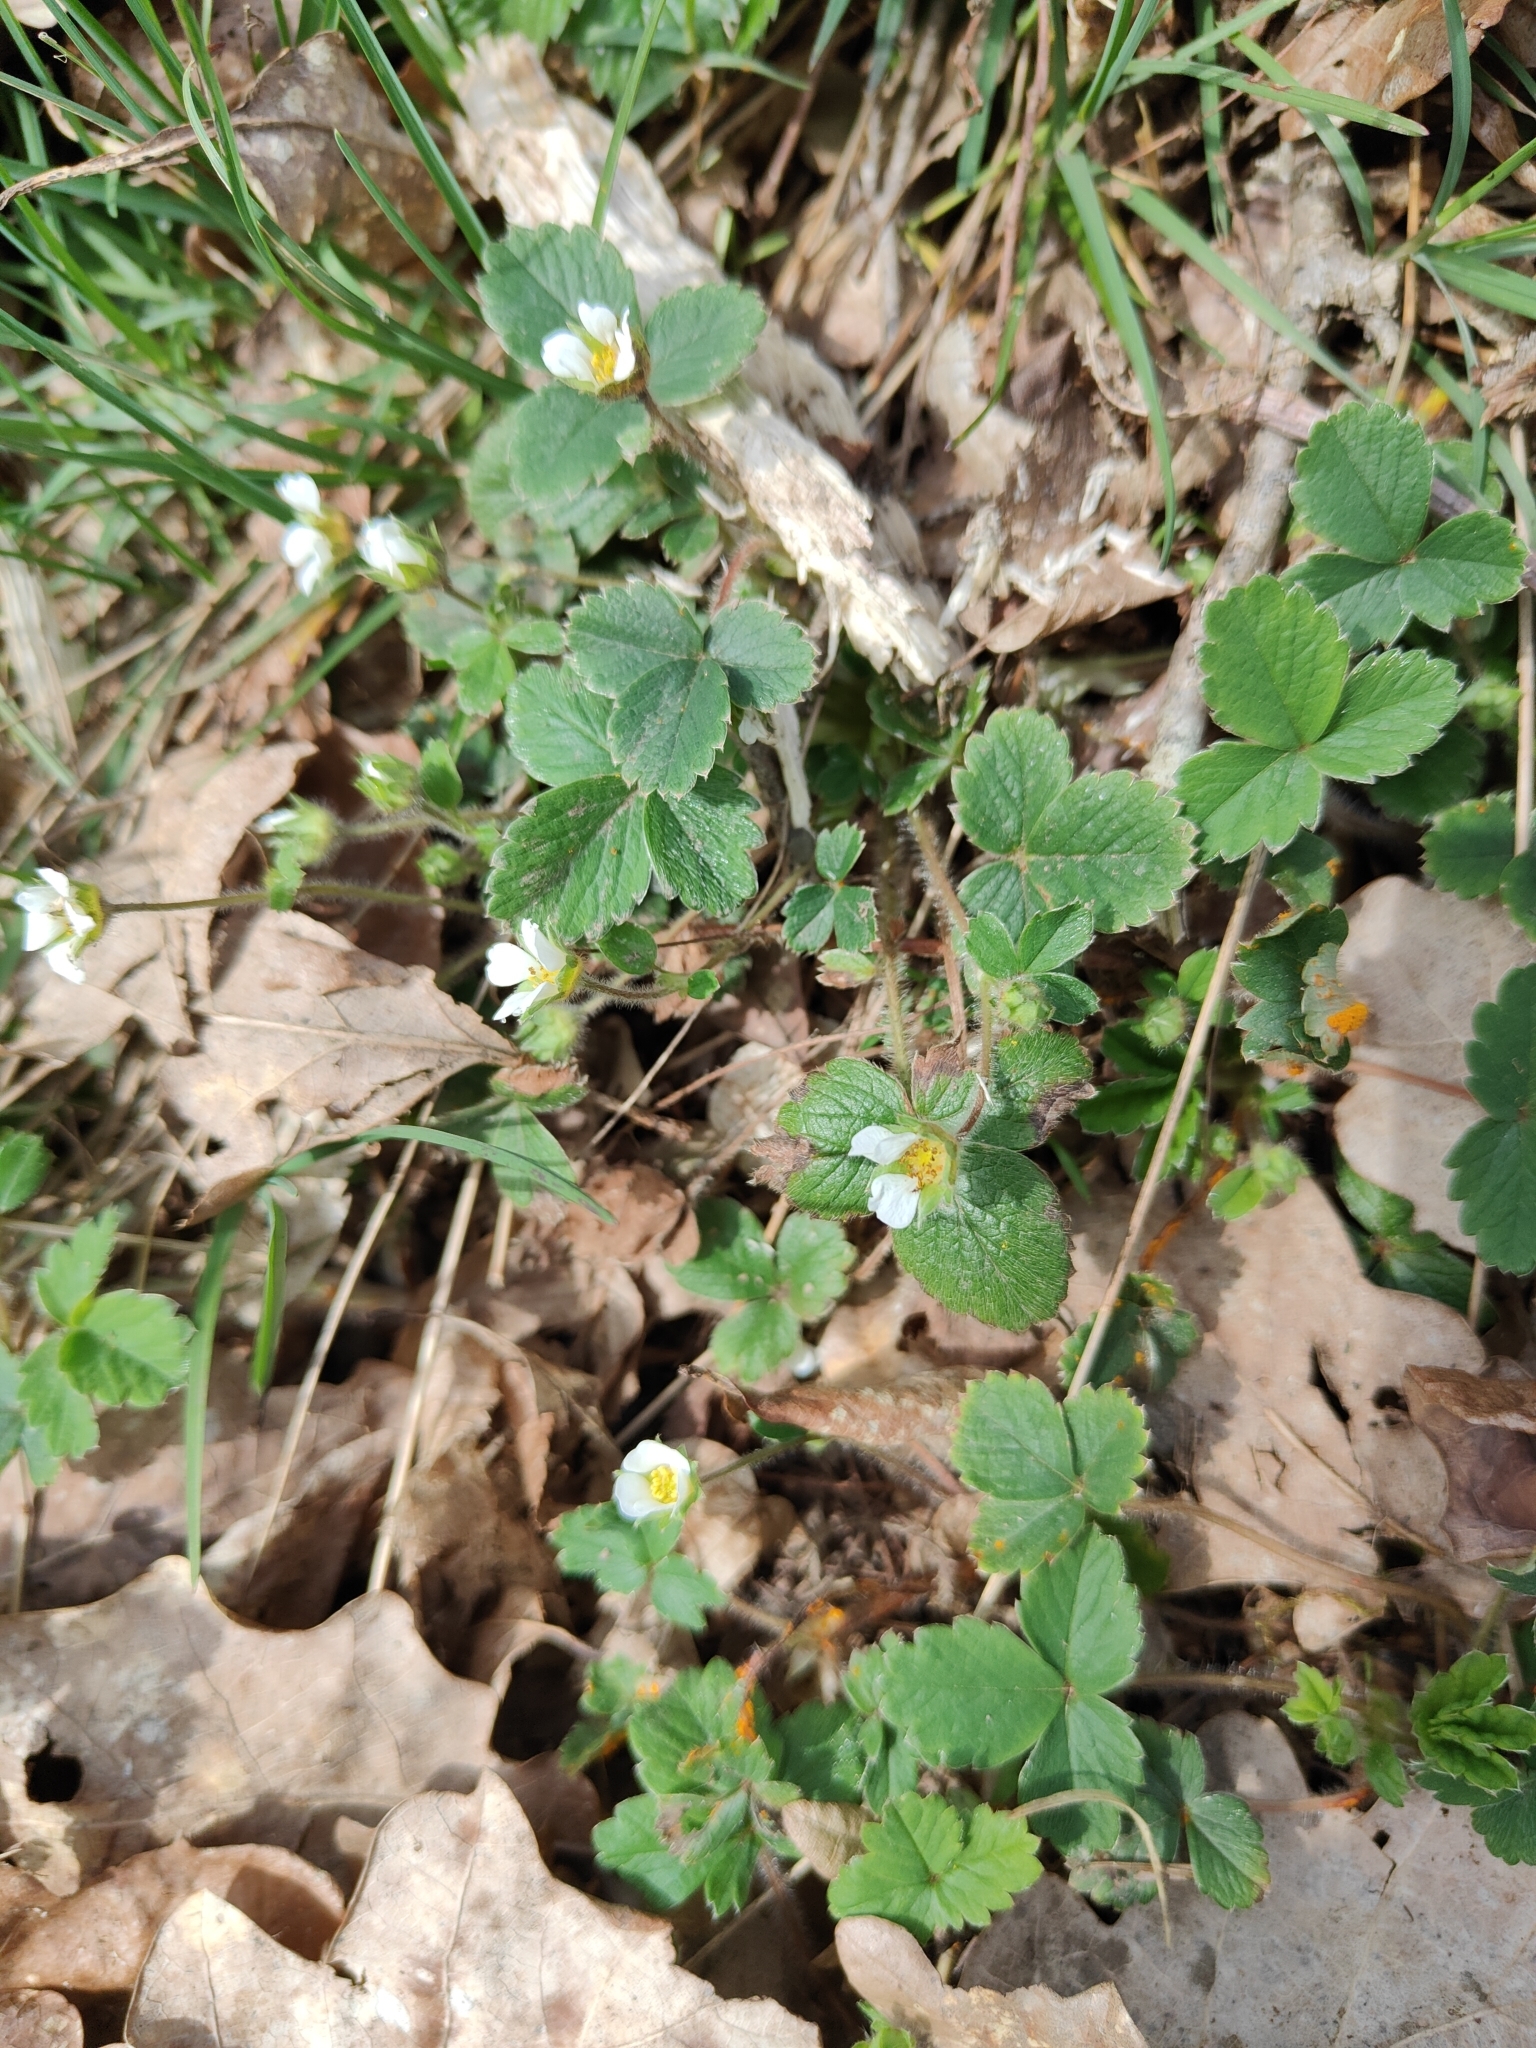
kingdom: Plantae
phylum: Tracheophyta
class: Magnoliopsida
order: Rosales
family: Rosaceae
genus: Fragaria
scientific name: Fragaria vesca
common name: Wild strawberry
